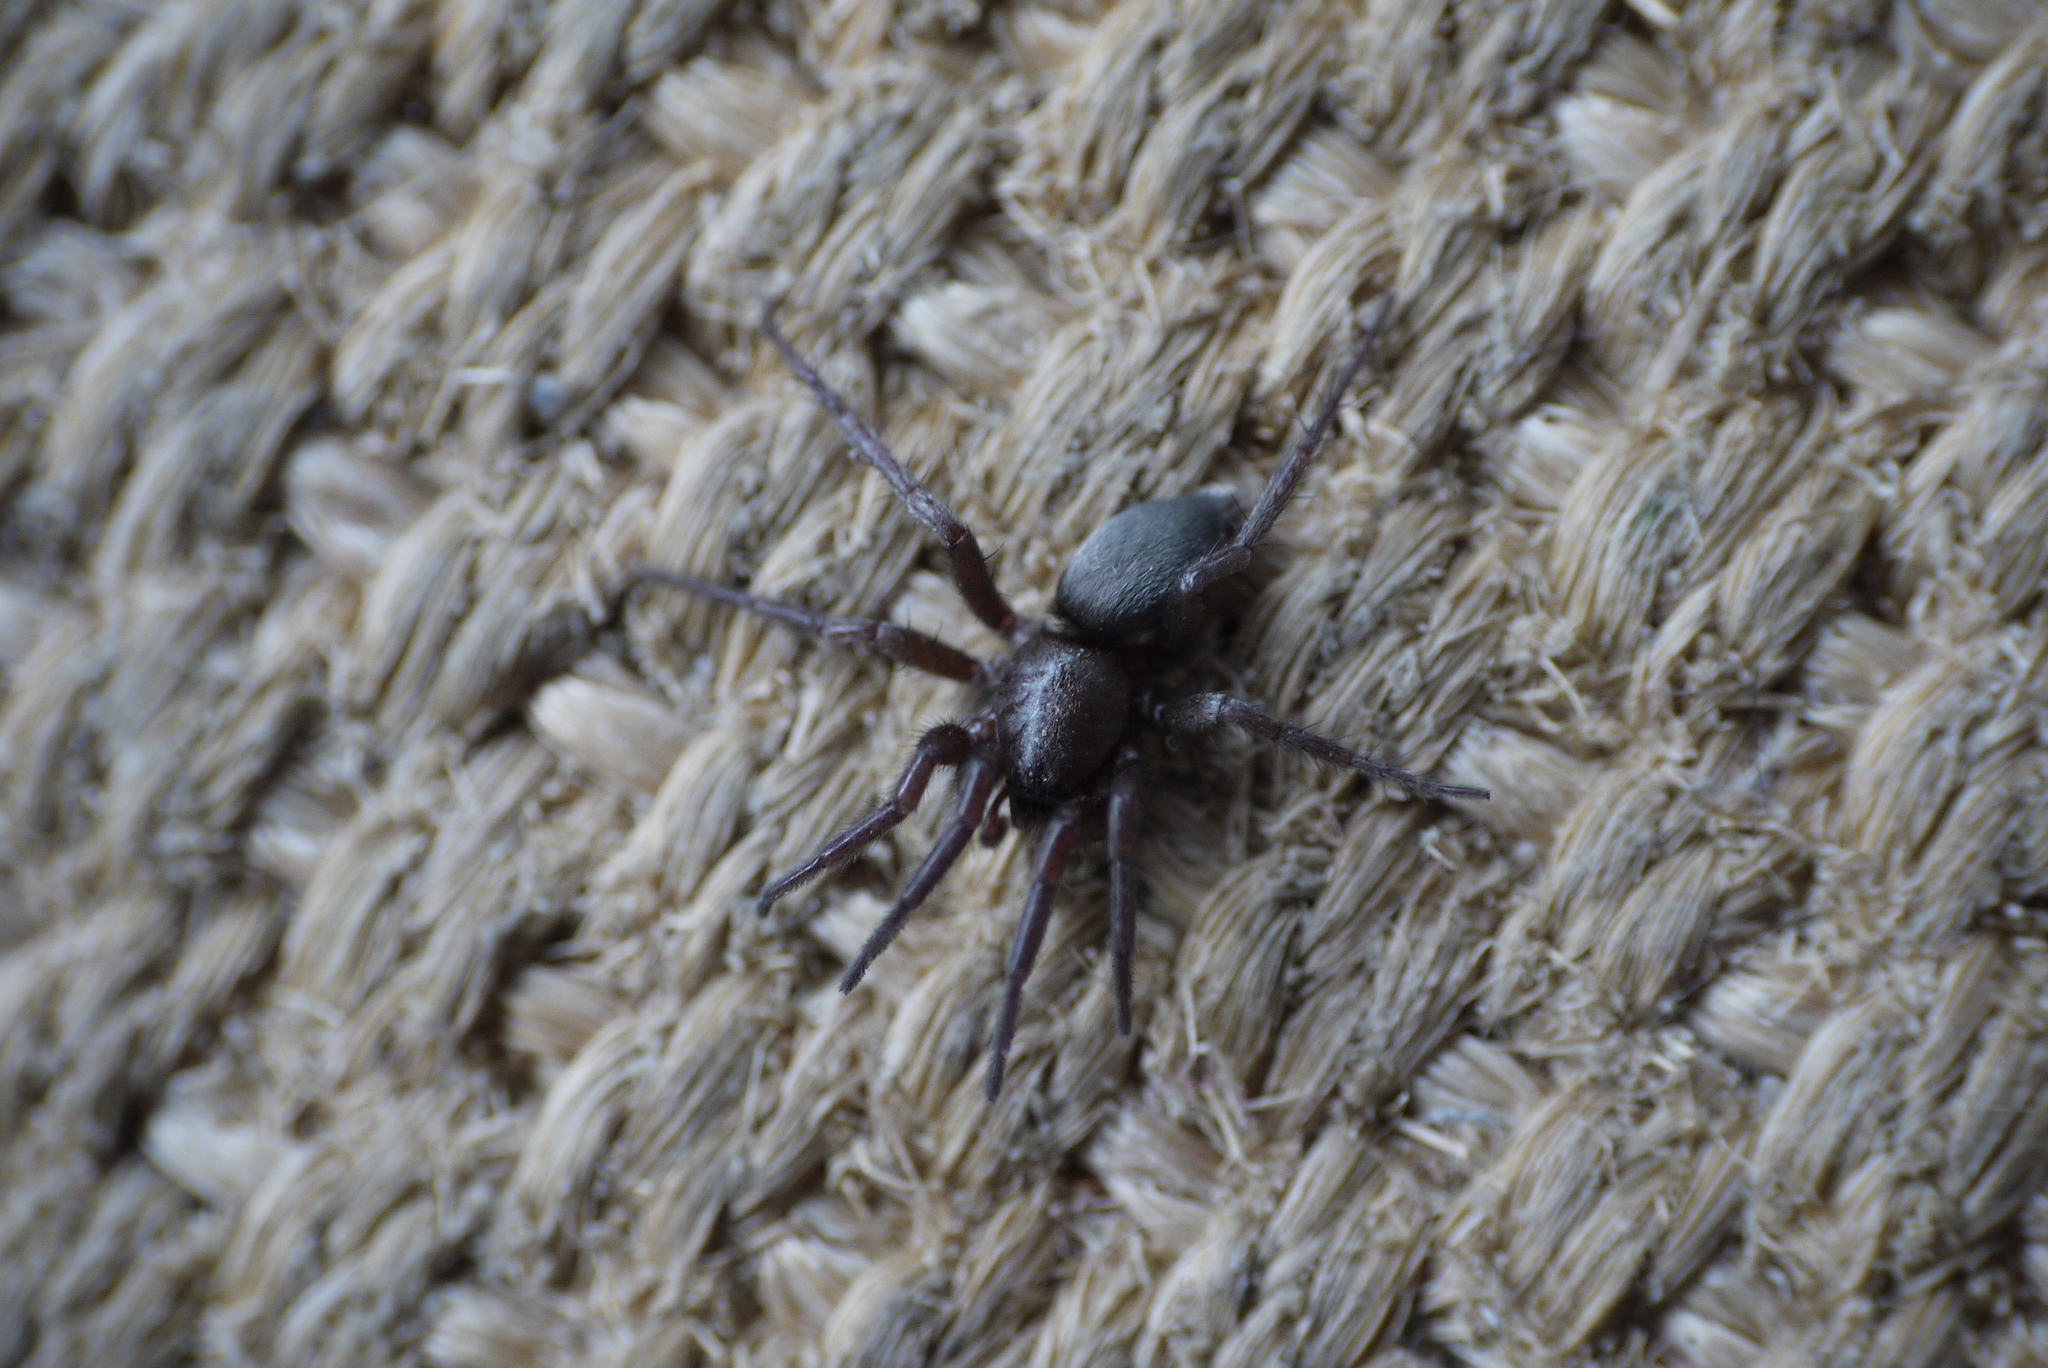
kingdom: Animalia
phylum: Arthropoda
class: Arachnida
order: Araneae
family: Gnaphosidae
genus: Scotophaeus
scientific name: Scotophaeus blackwalli
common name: Mouse spider
